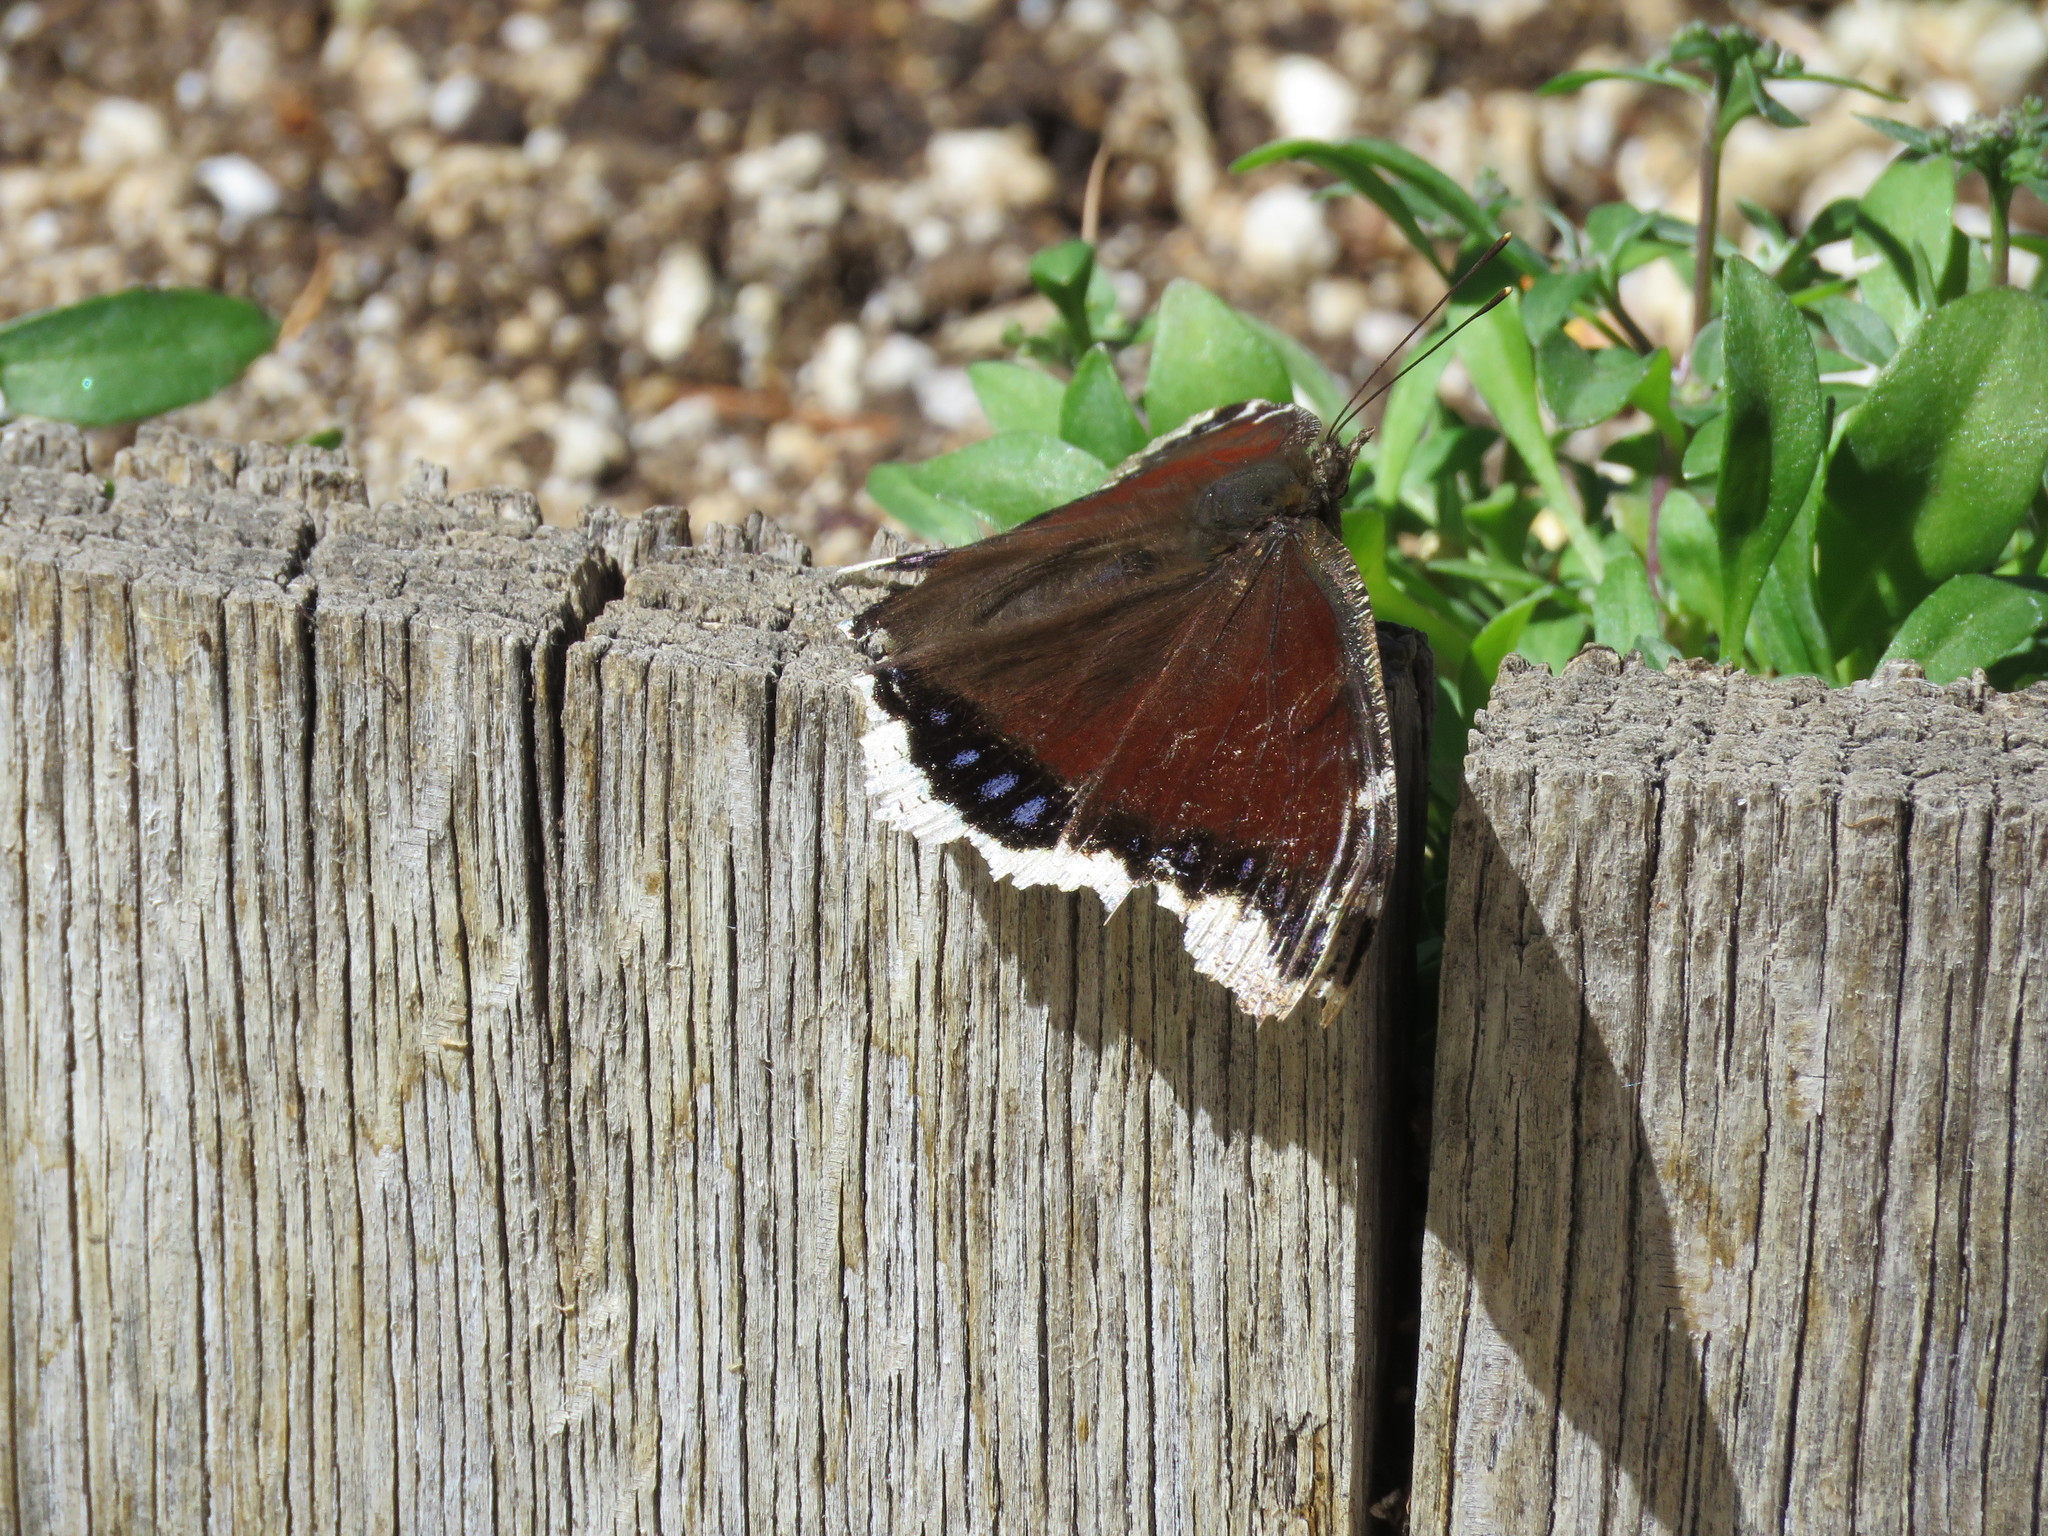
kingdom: Animalia
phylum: Arthropoda
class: Insecta
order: Lepidoptera
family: Nymphalidae
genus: Nymphalis
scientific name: Nymphalis antiopa
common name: Camberwell beauty
